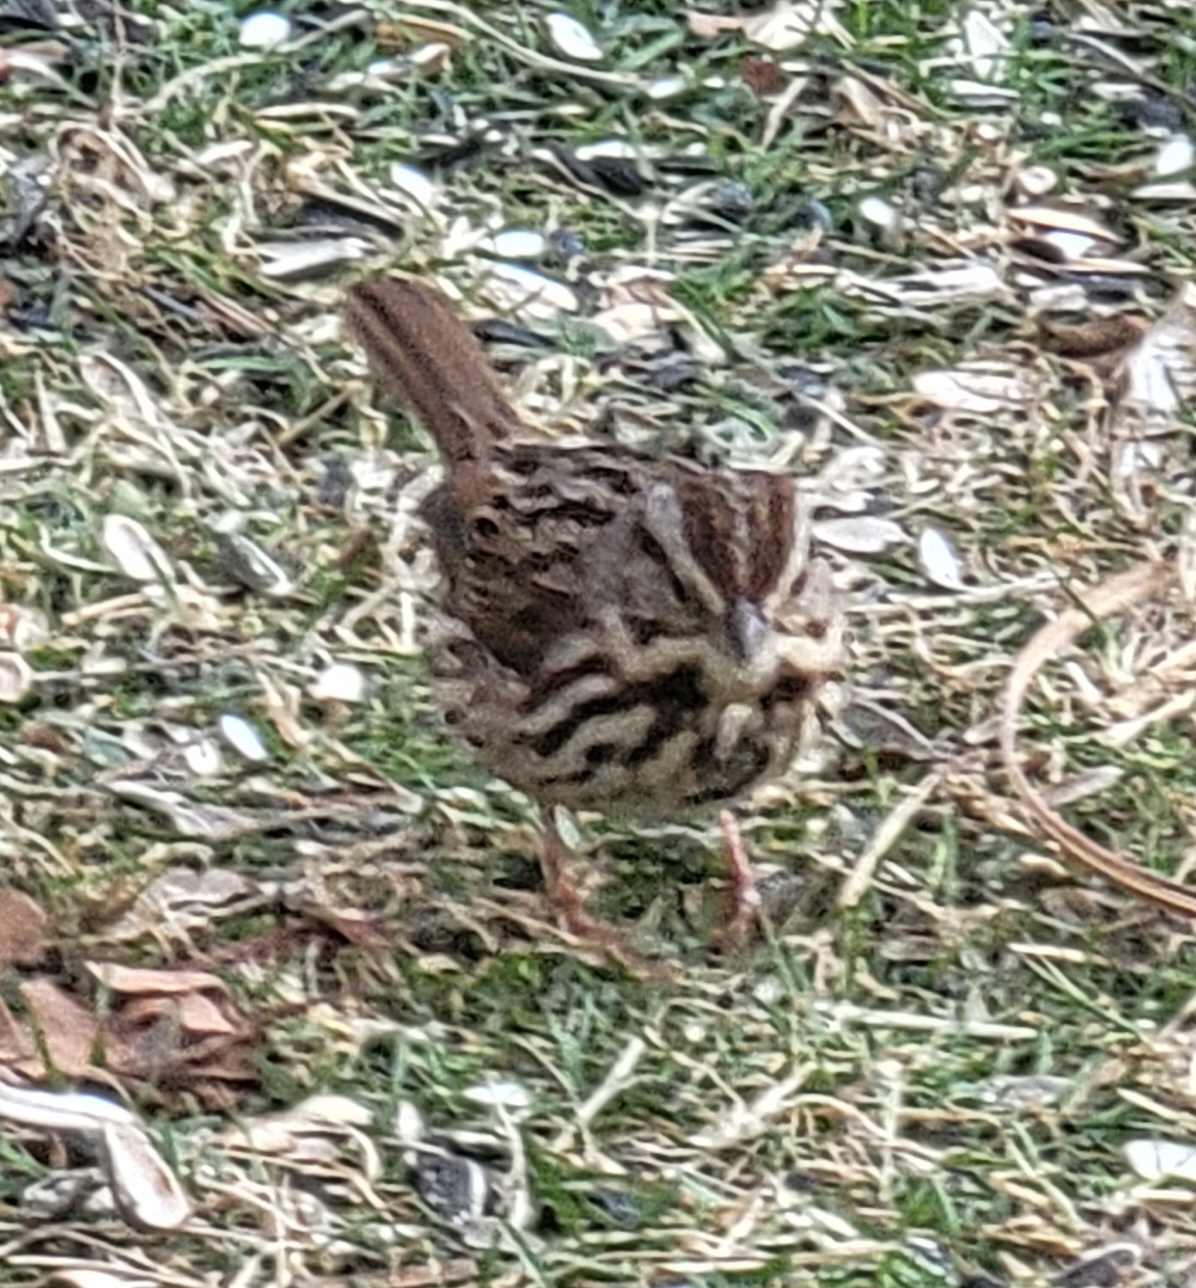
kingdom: Animalia
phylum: Chordata
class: Aves
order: Passeriformes
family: Passerellidae
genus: Melospiza
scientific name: Melospiza melodia
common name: Song sparrow
